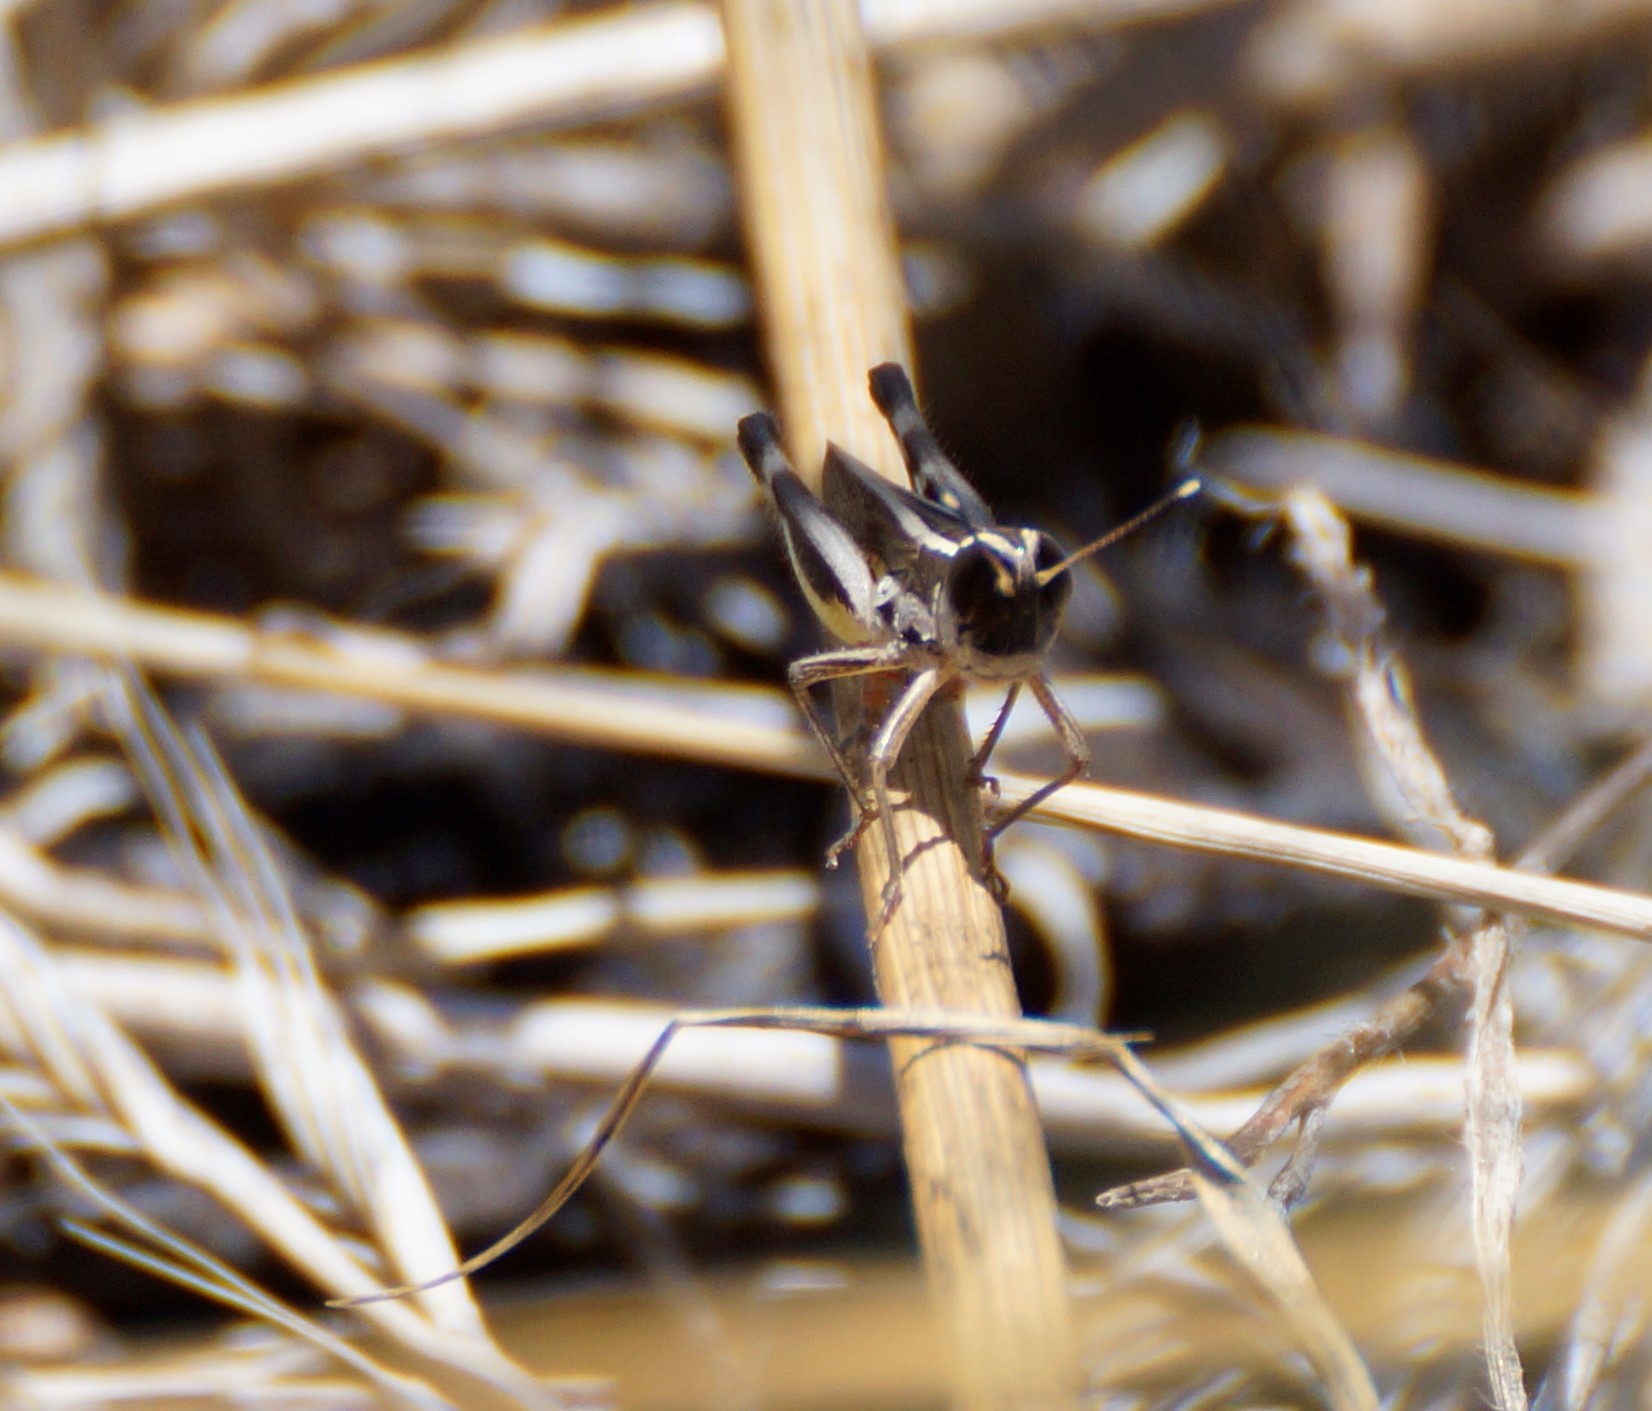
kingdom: Animalia
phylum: Arthropoda
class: Insecta
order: Orthoptera
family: Acrididae
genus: Macrotona
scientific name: Macrotona australis
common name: Common macrotona
